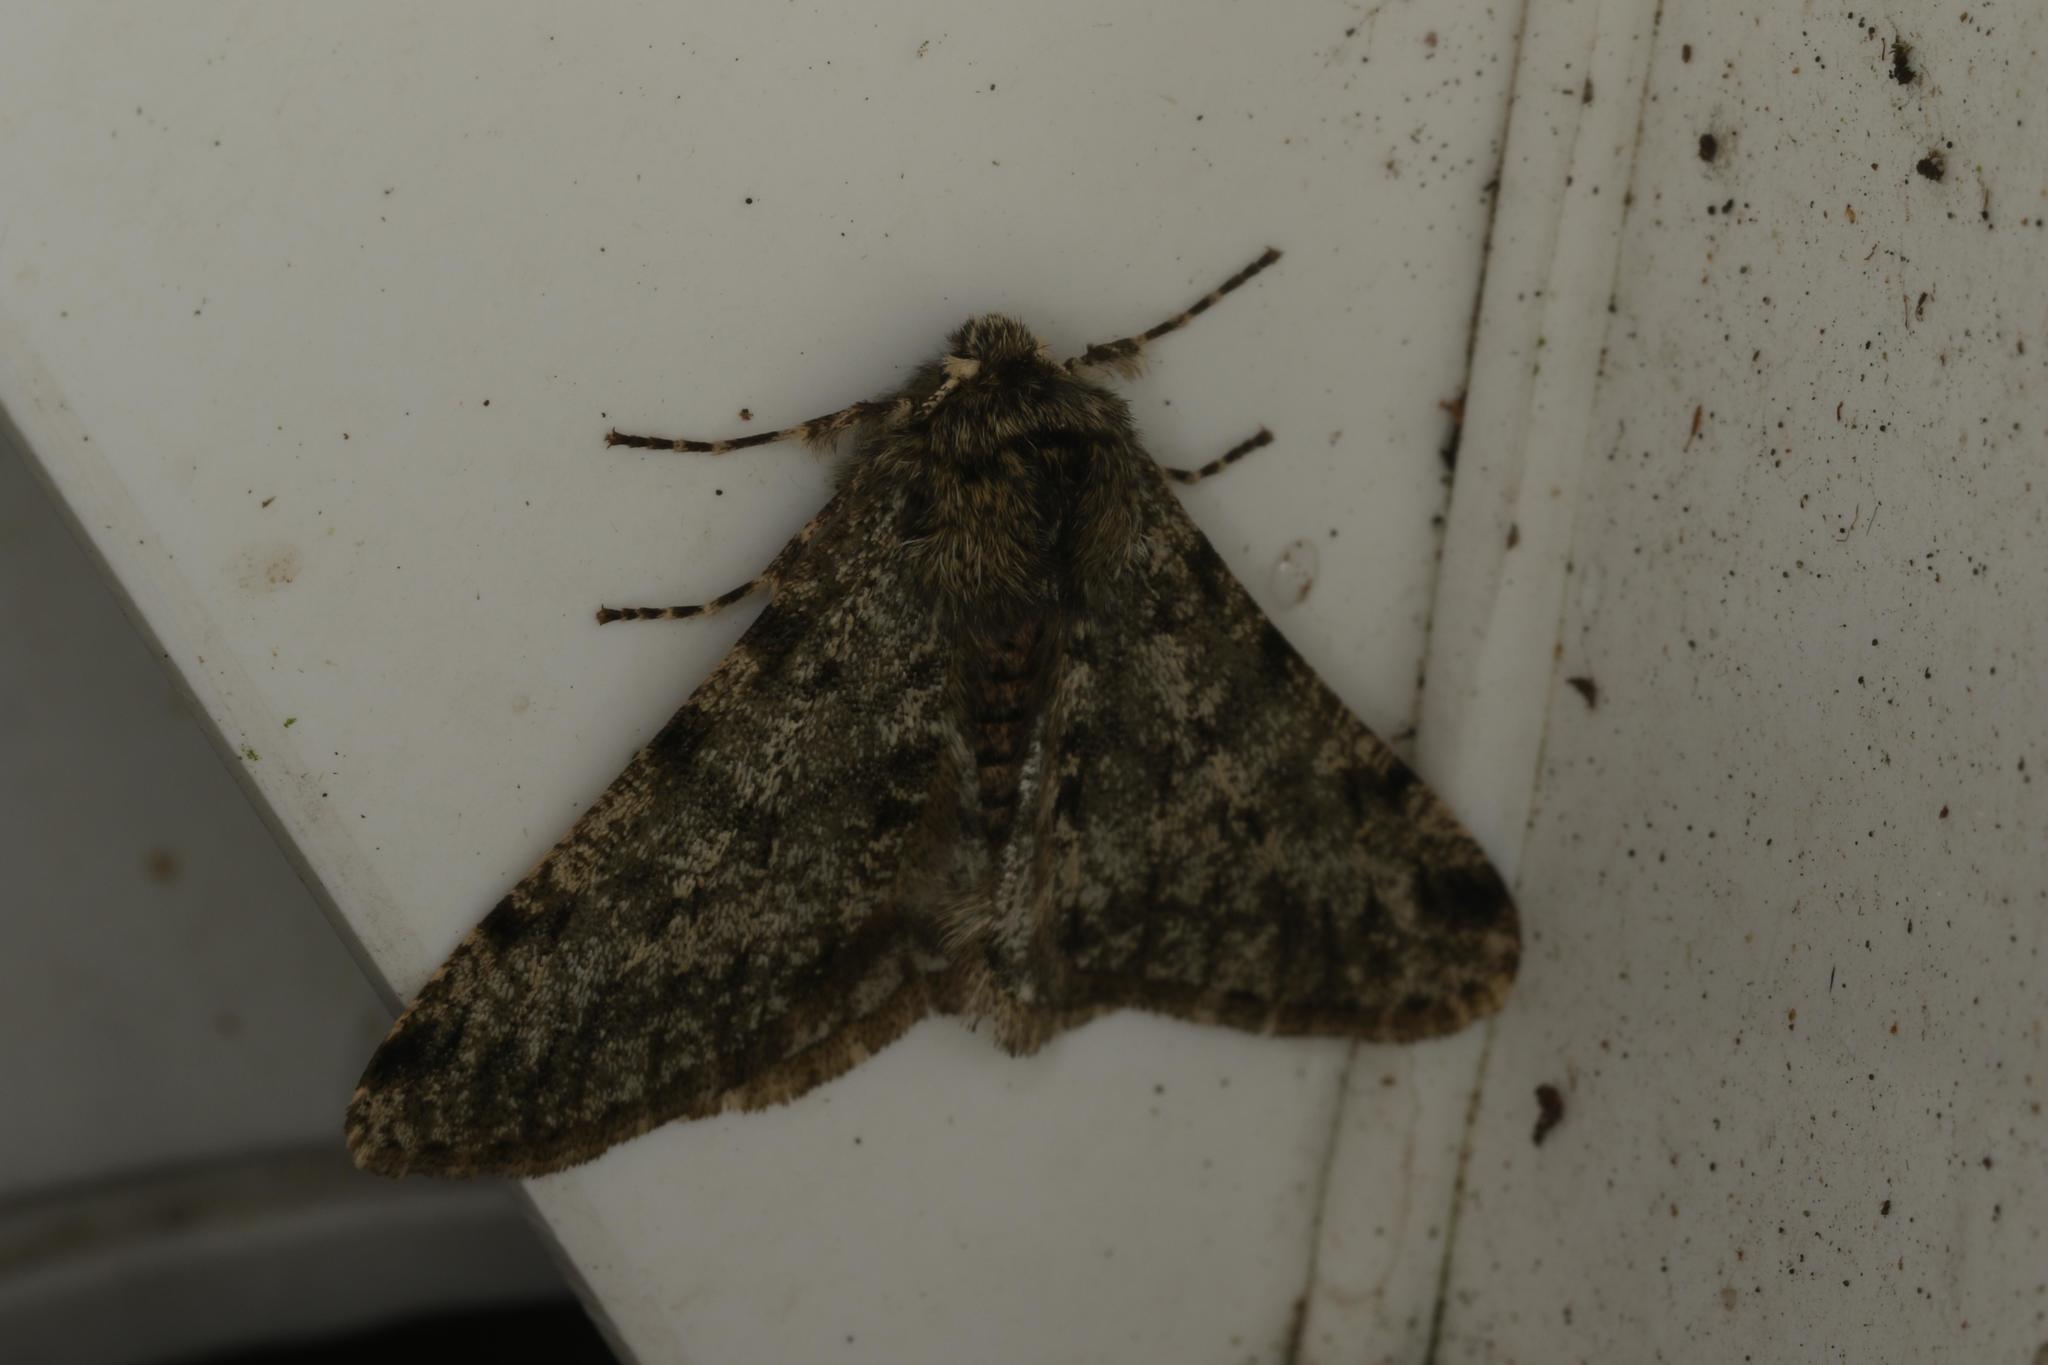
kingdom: Animalia
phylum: Arthropoda
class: Insecta
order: Lepidoptera
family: Geometridae
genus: Phigalia
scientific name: Phigalia pilosaria
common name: Pale brindled beauty
